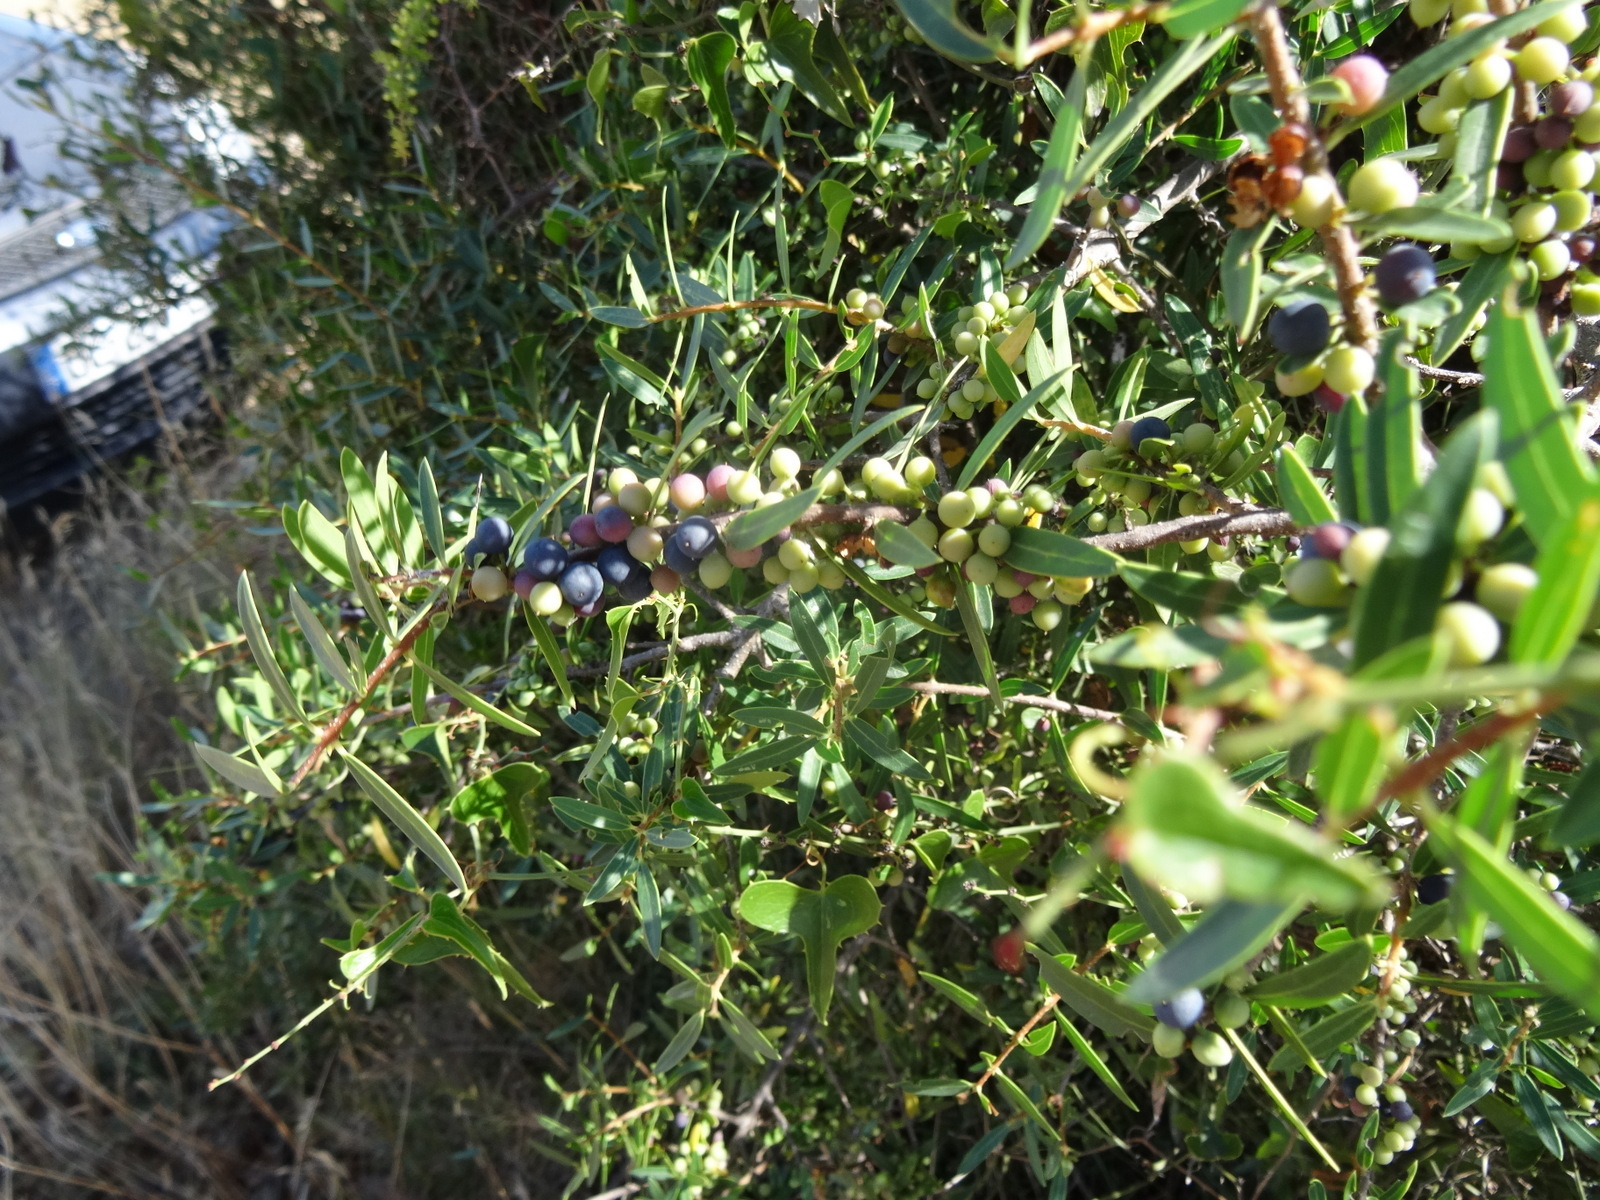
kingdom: Plantae
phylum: Tracheophyta
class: Magnoliopsida
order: Lamiales
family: Oleaceae
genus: Phillyrea
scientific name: Phillyrea angustifolia
